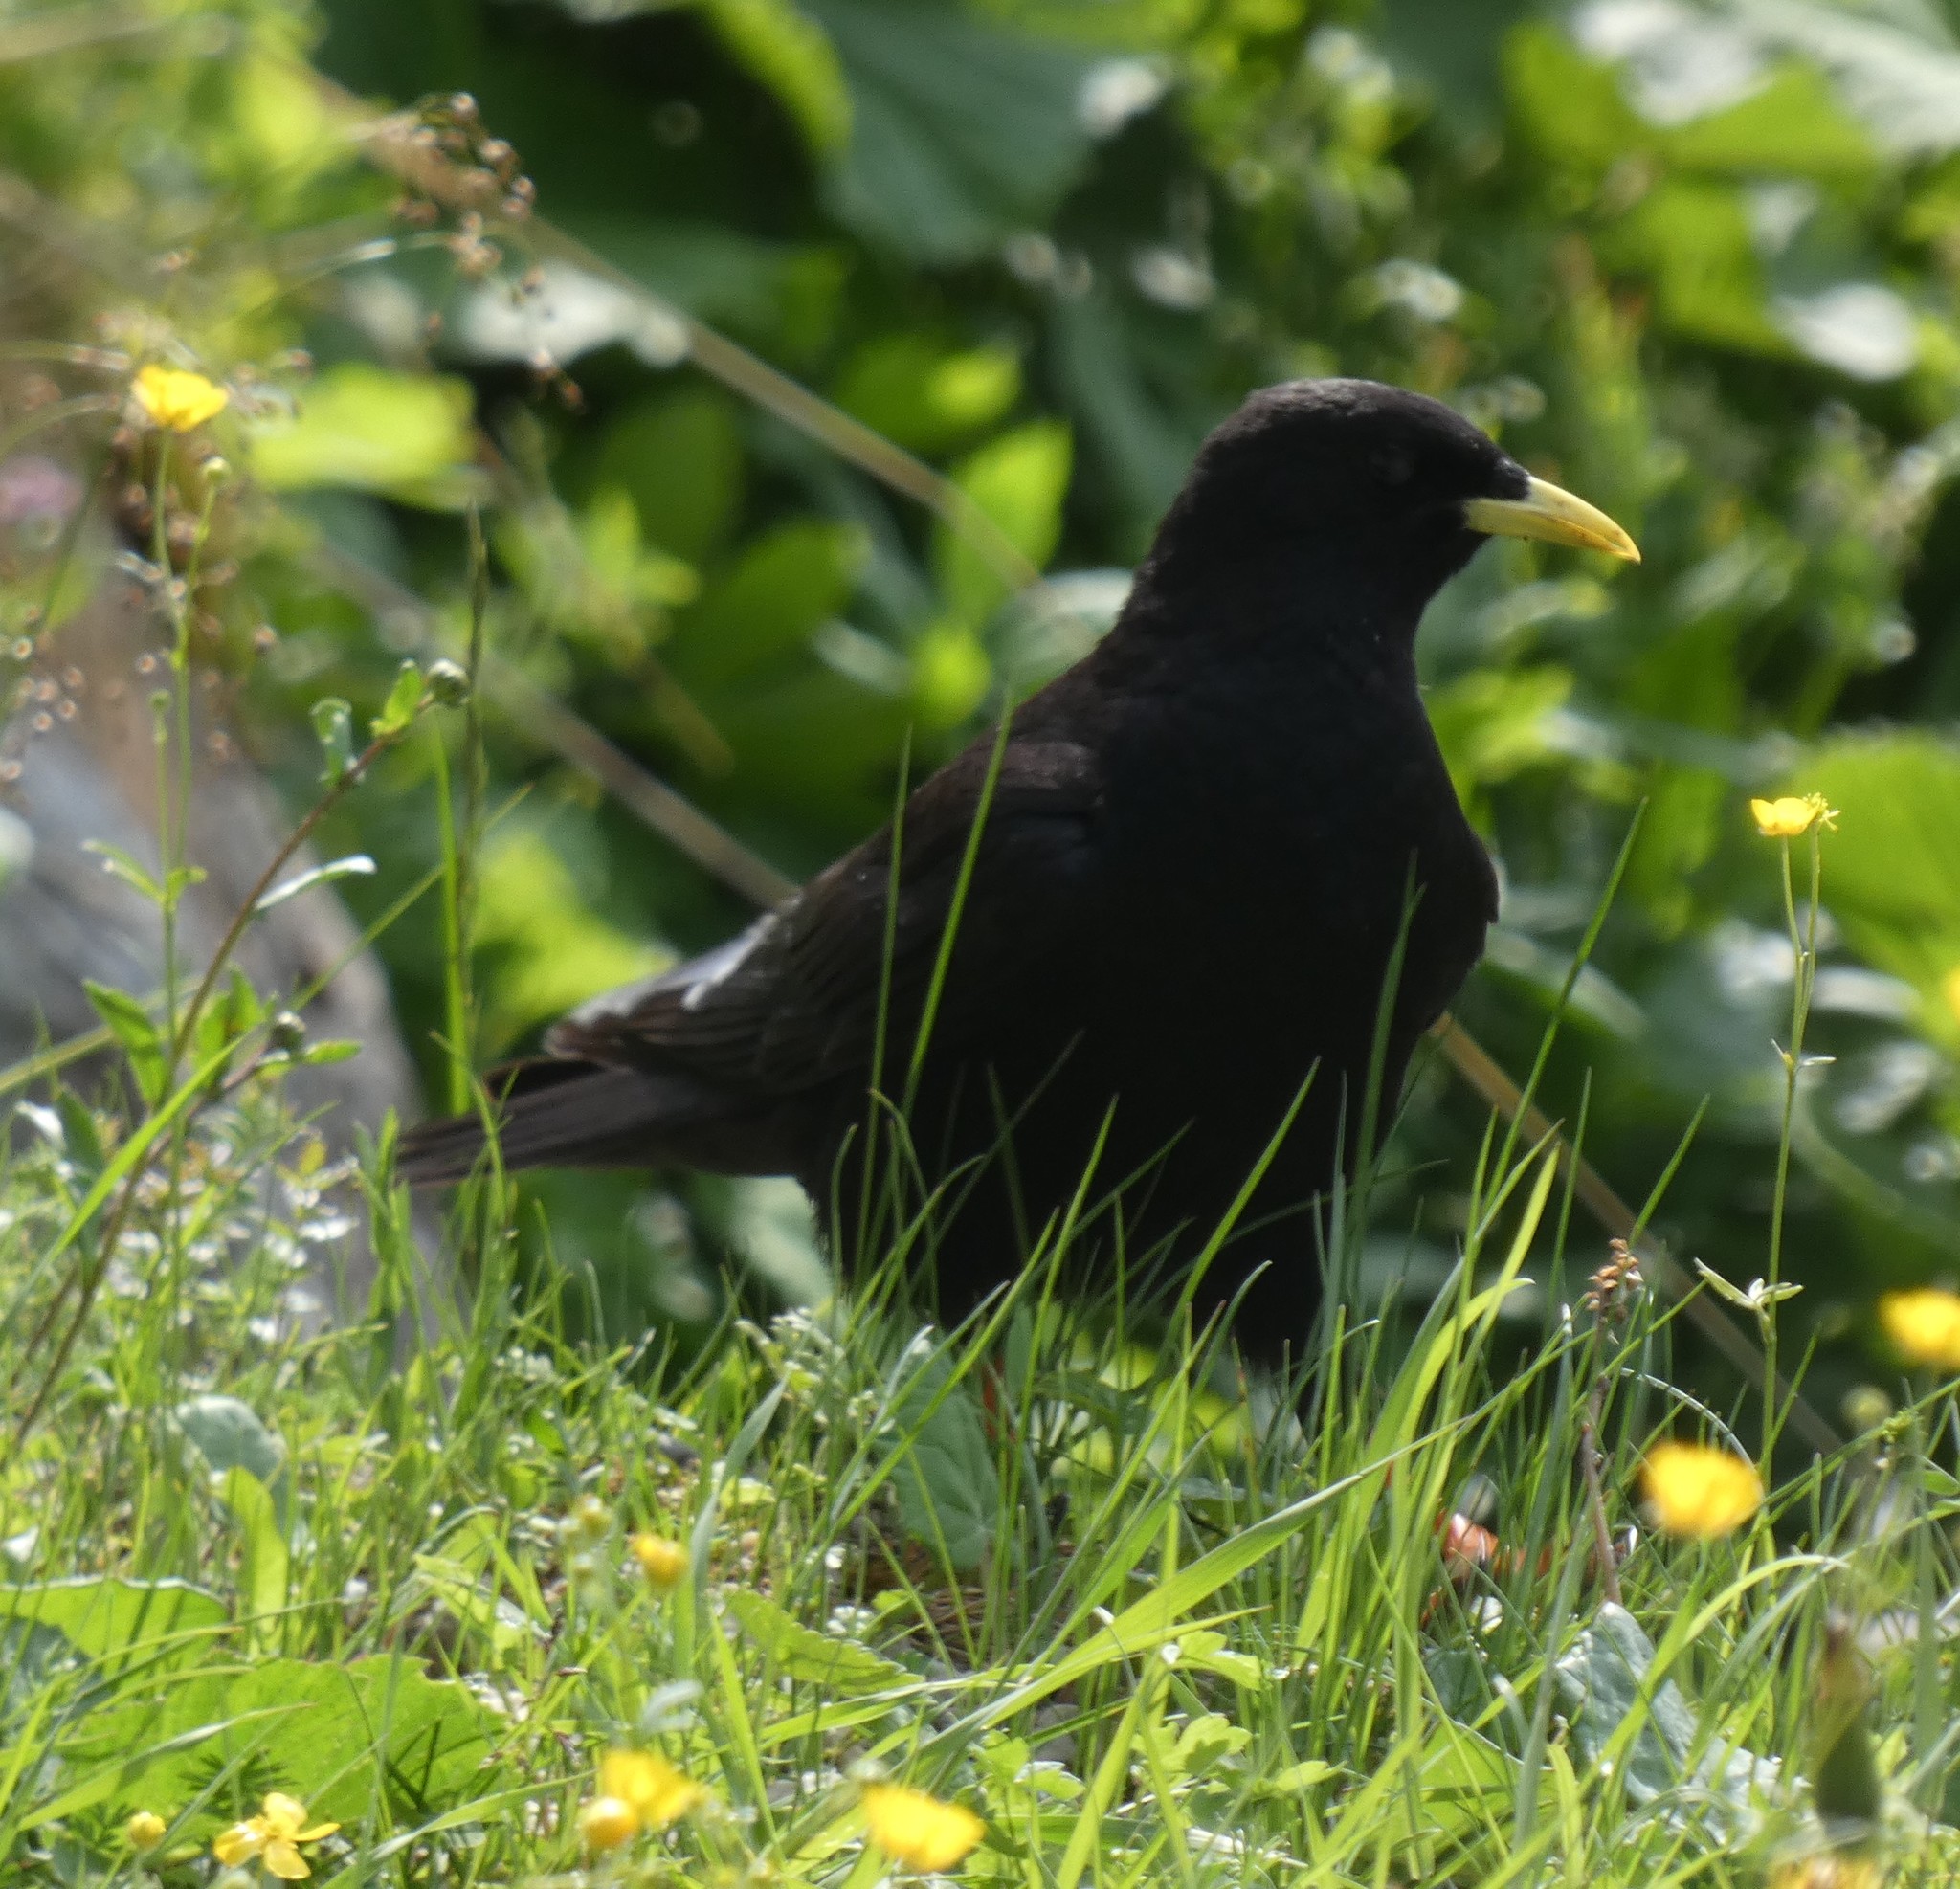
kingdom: Animalia
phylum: Chordata
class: Aves
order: Passeriformes
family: Corvidae
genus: Pyrrhocorax
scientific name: Pyrrhocorax graculus
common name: Alpine chough
